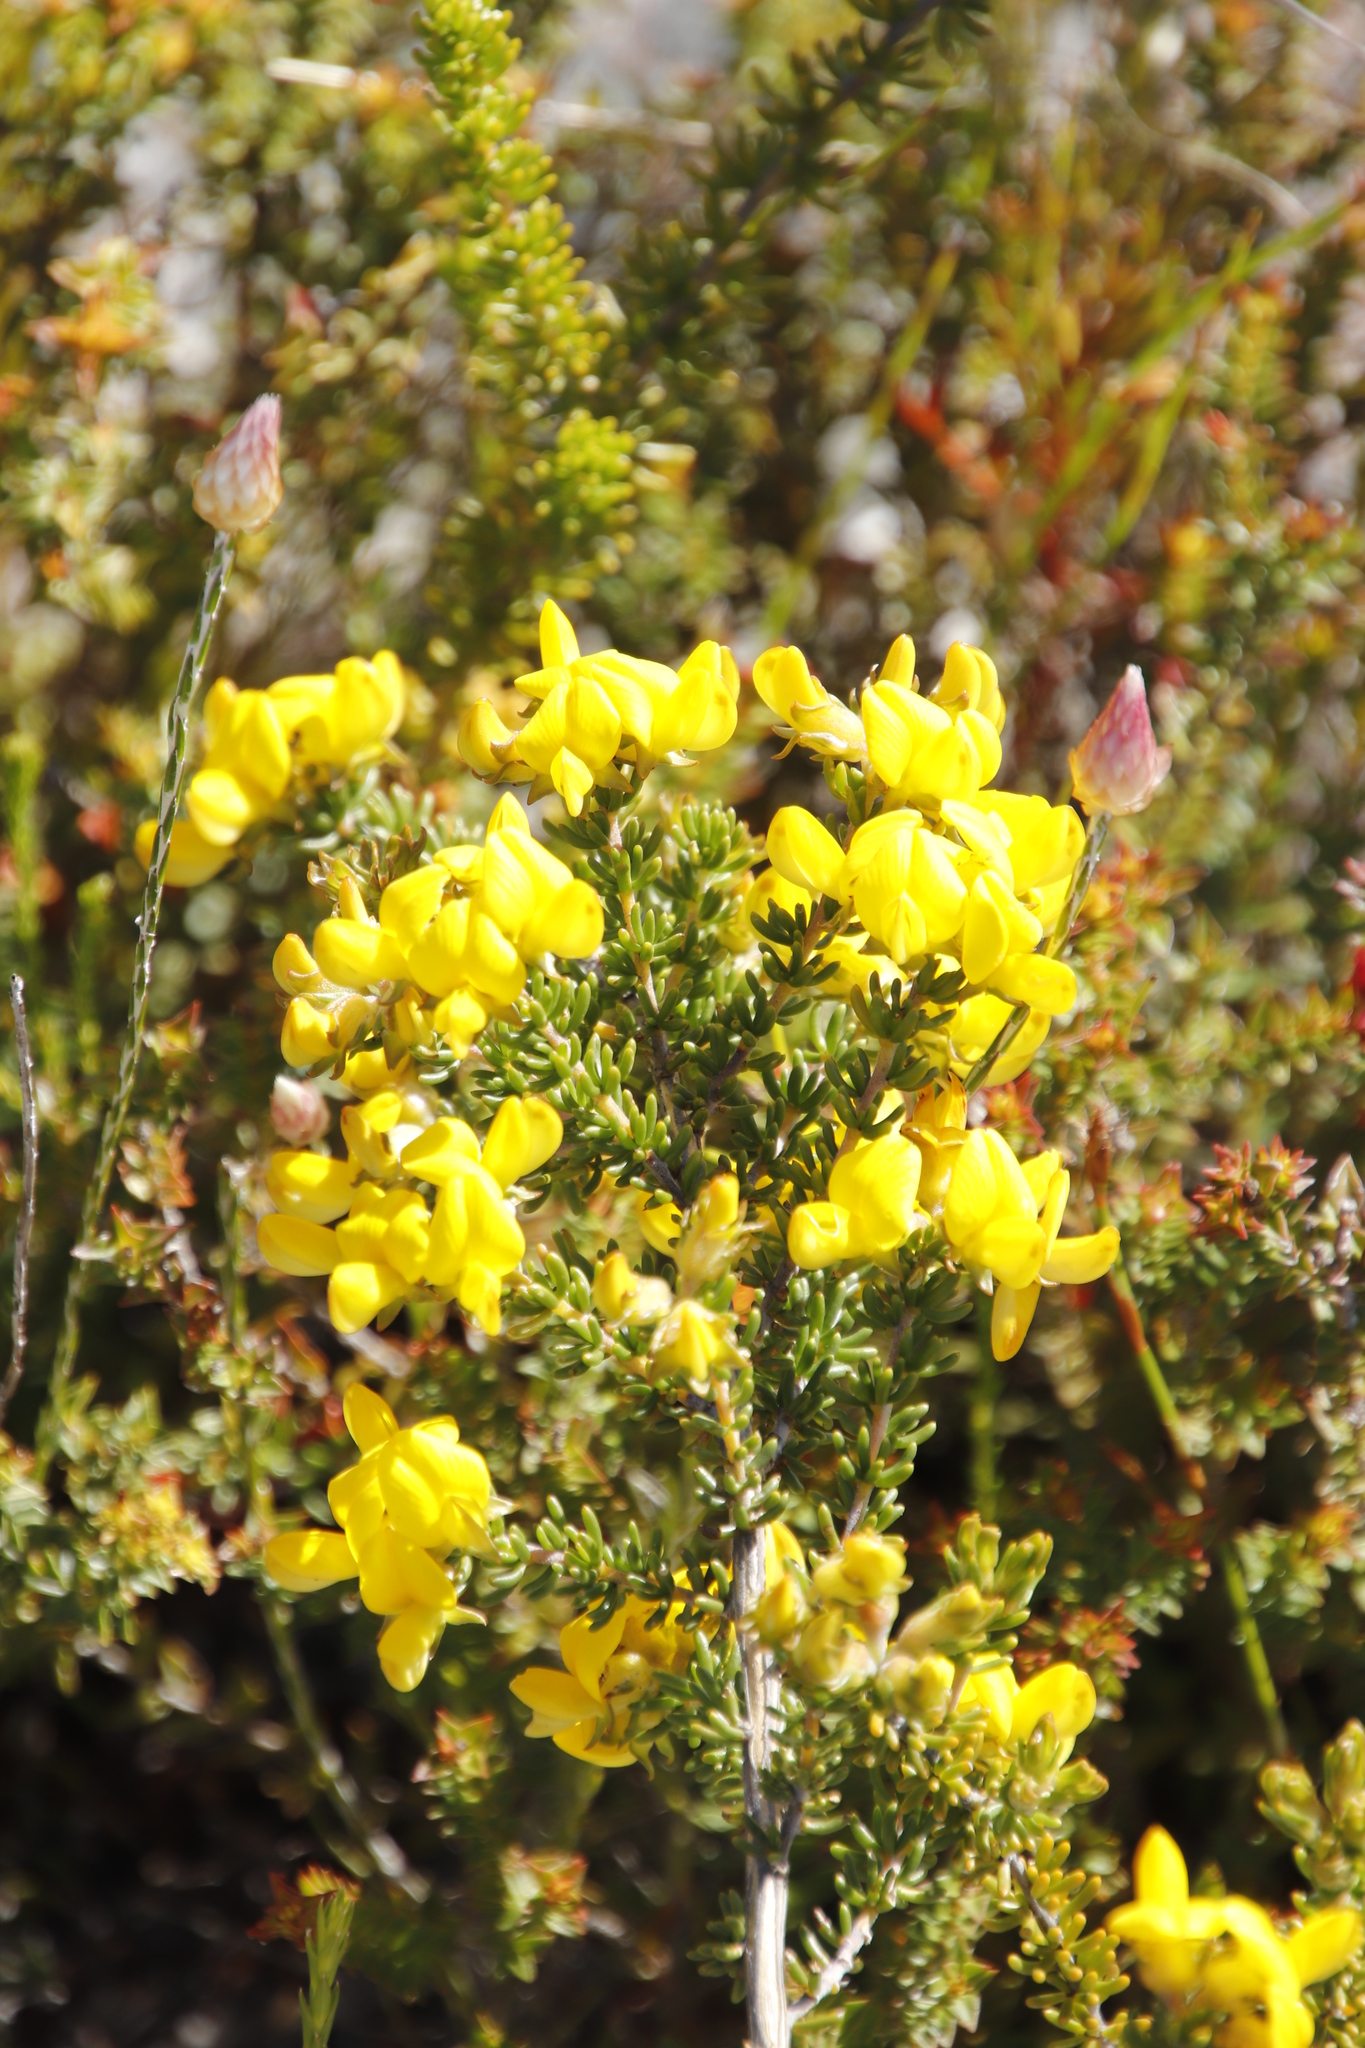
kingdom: Plantae
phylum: Tracheophyta
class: Magnoliopsida
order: Fabales
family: Fabaceae
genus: Aspalathus
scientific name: Aspalathus carnosa
